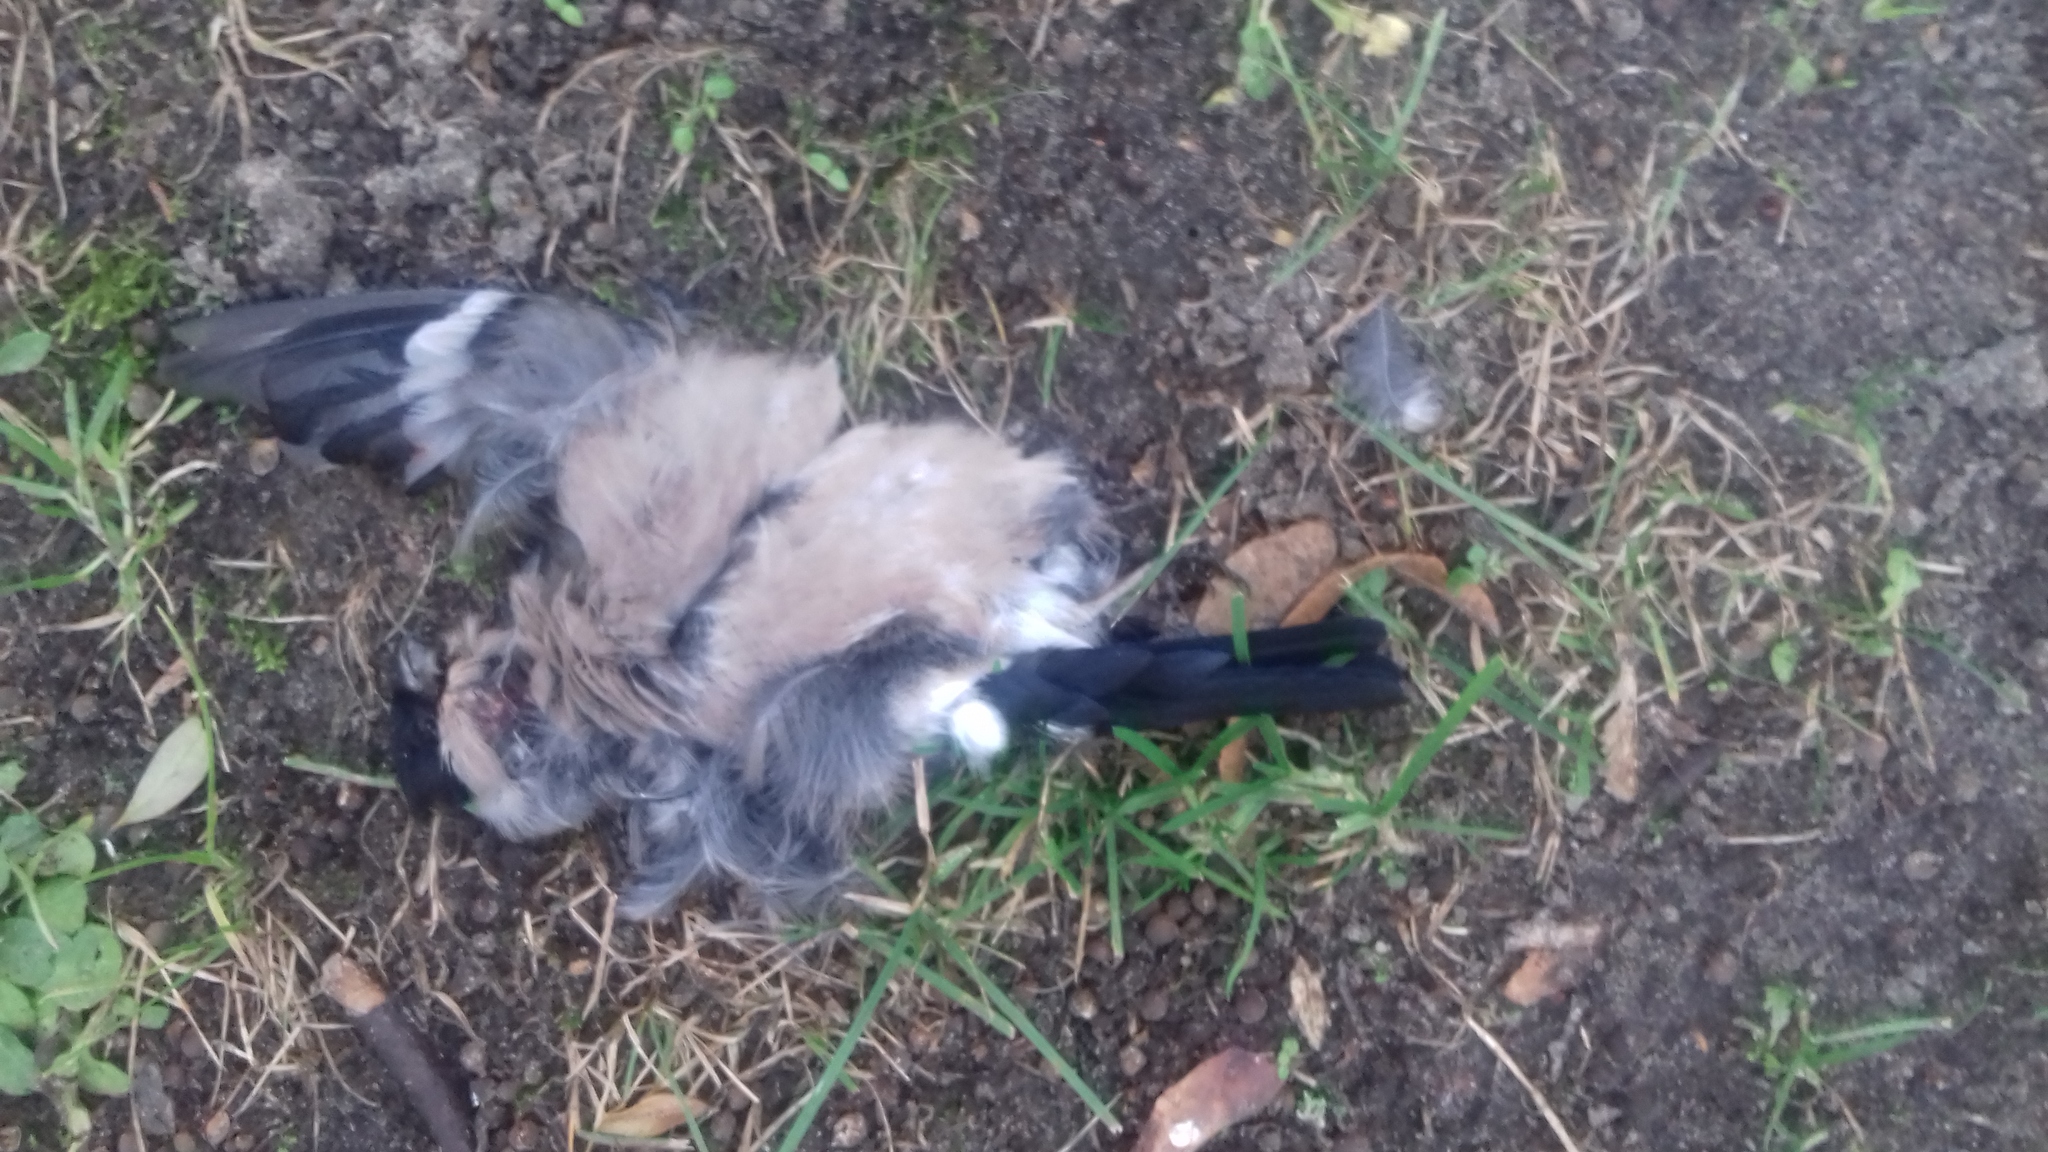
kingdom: Animalia
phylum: Chordata
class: Aves
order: Passeriformes
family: Fringillidae
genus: Pyrrhula
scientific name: Pyrrhula pyrrhula
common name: Eurasian bullfinch
